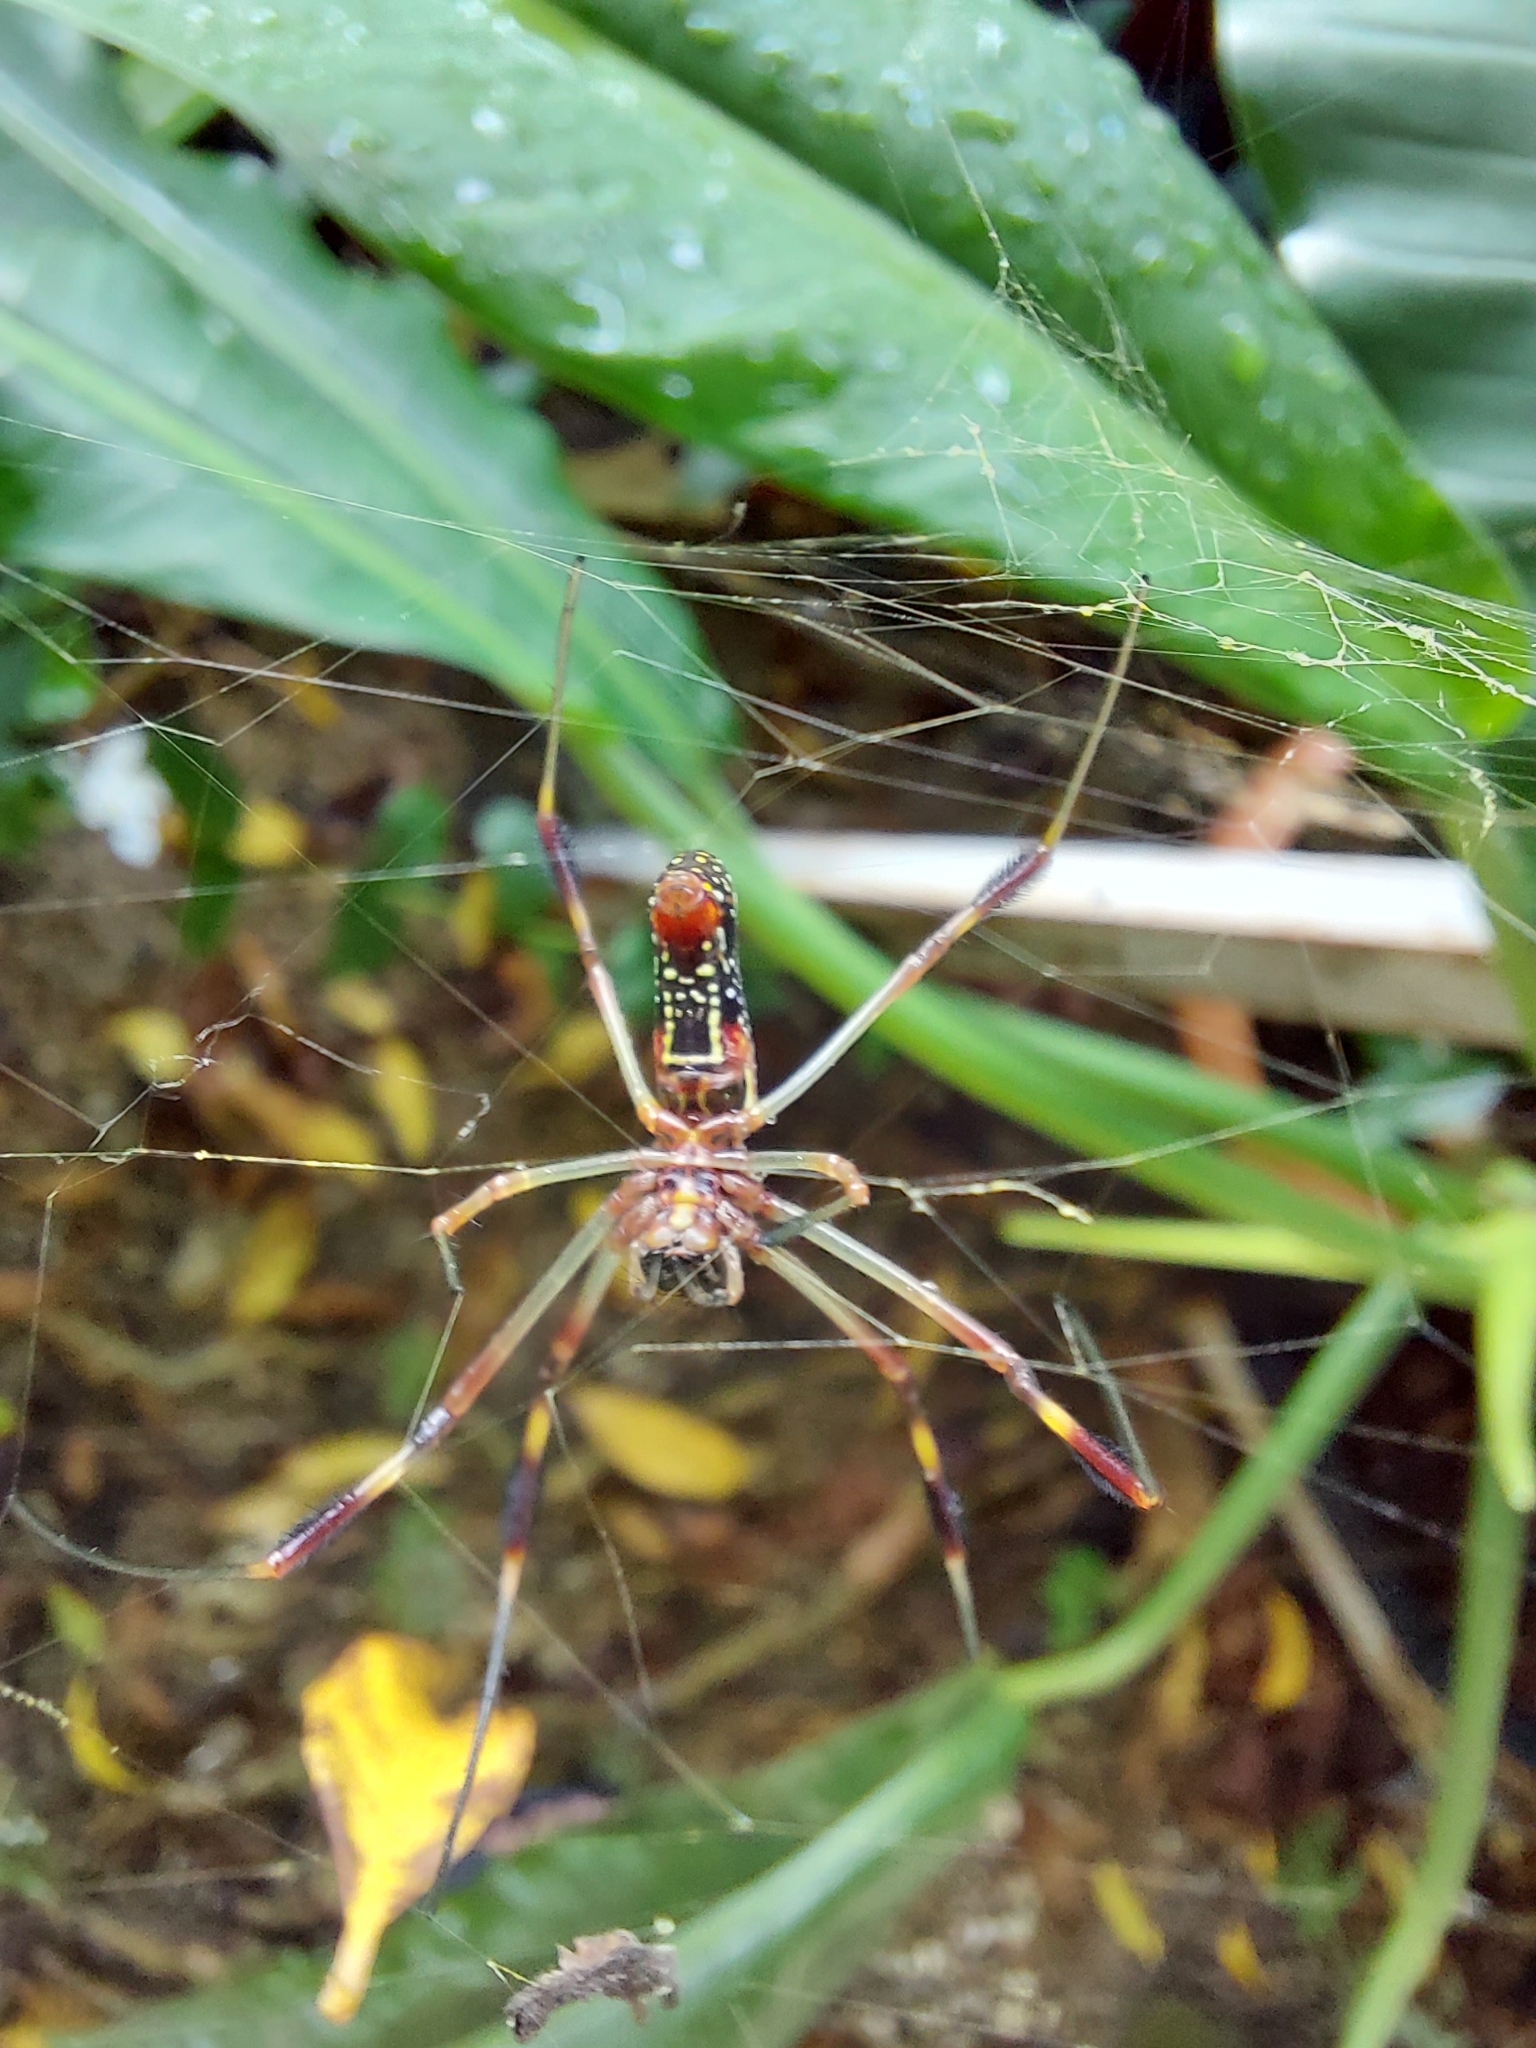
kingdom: Animalia
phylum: Arthropoda
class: Arachnida
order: Araneae
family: Araneidae
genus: Trichonephila
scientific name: Trichonephila clavipes
